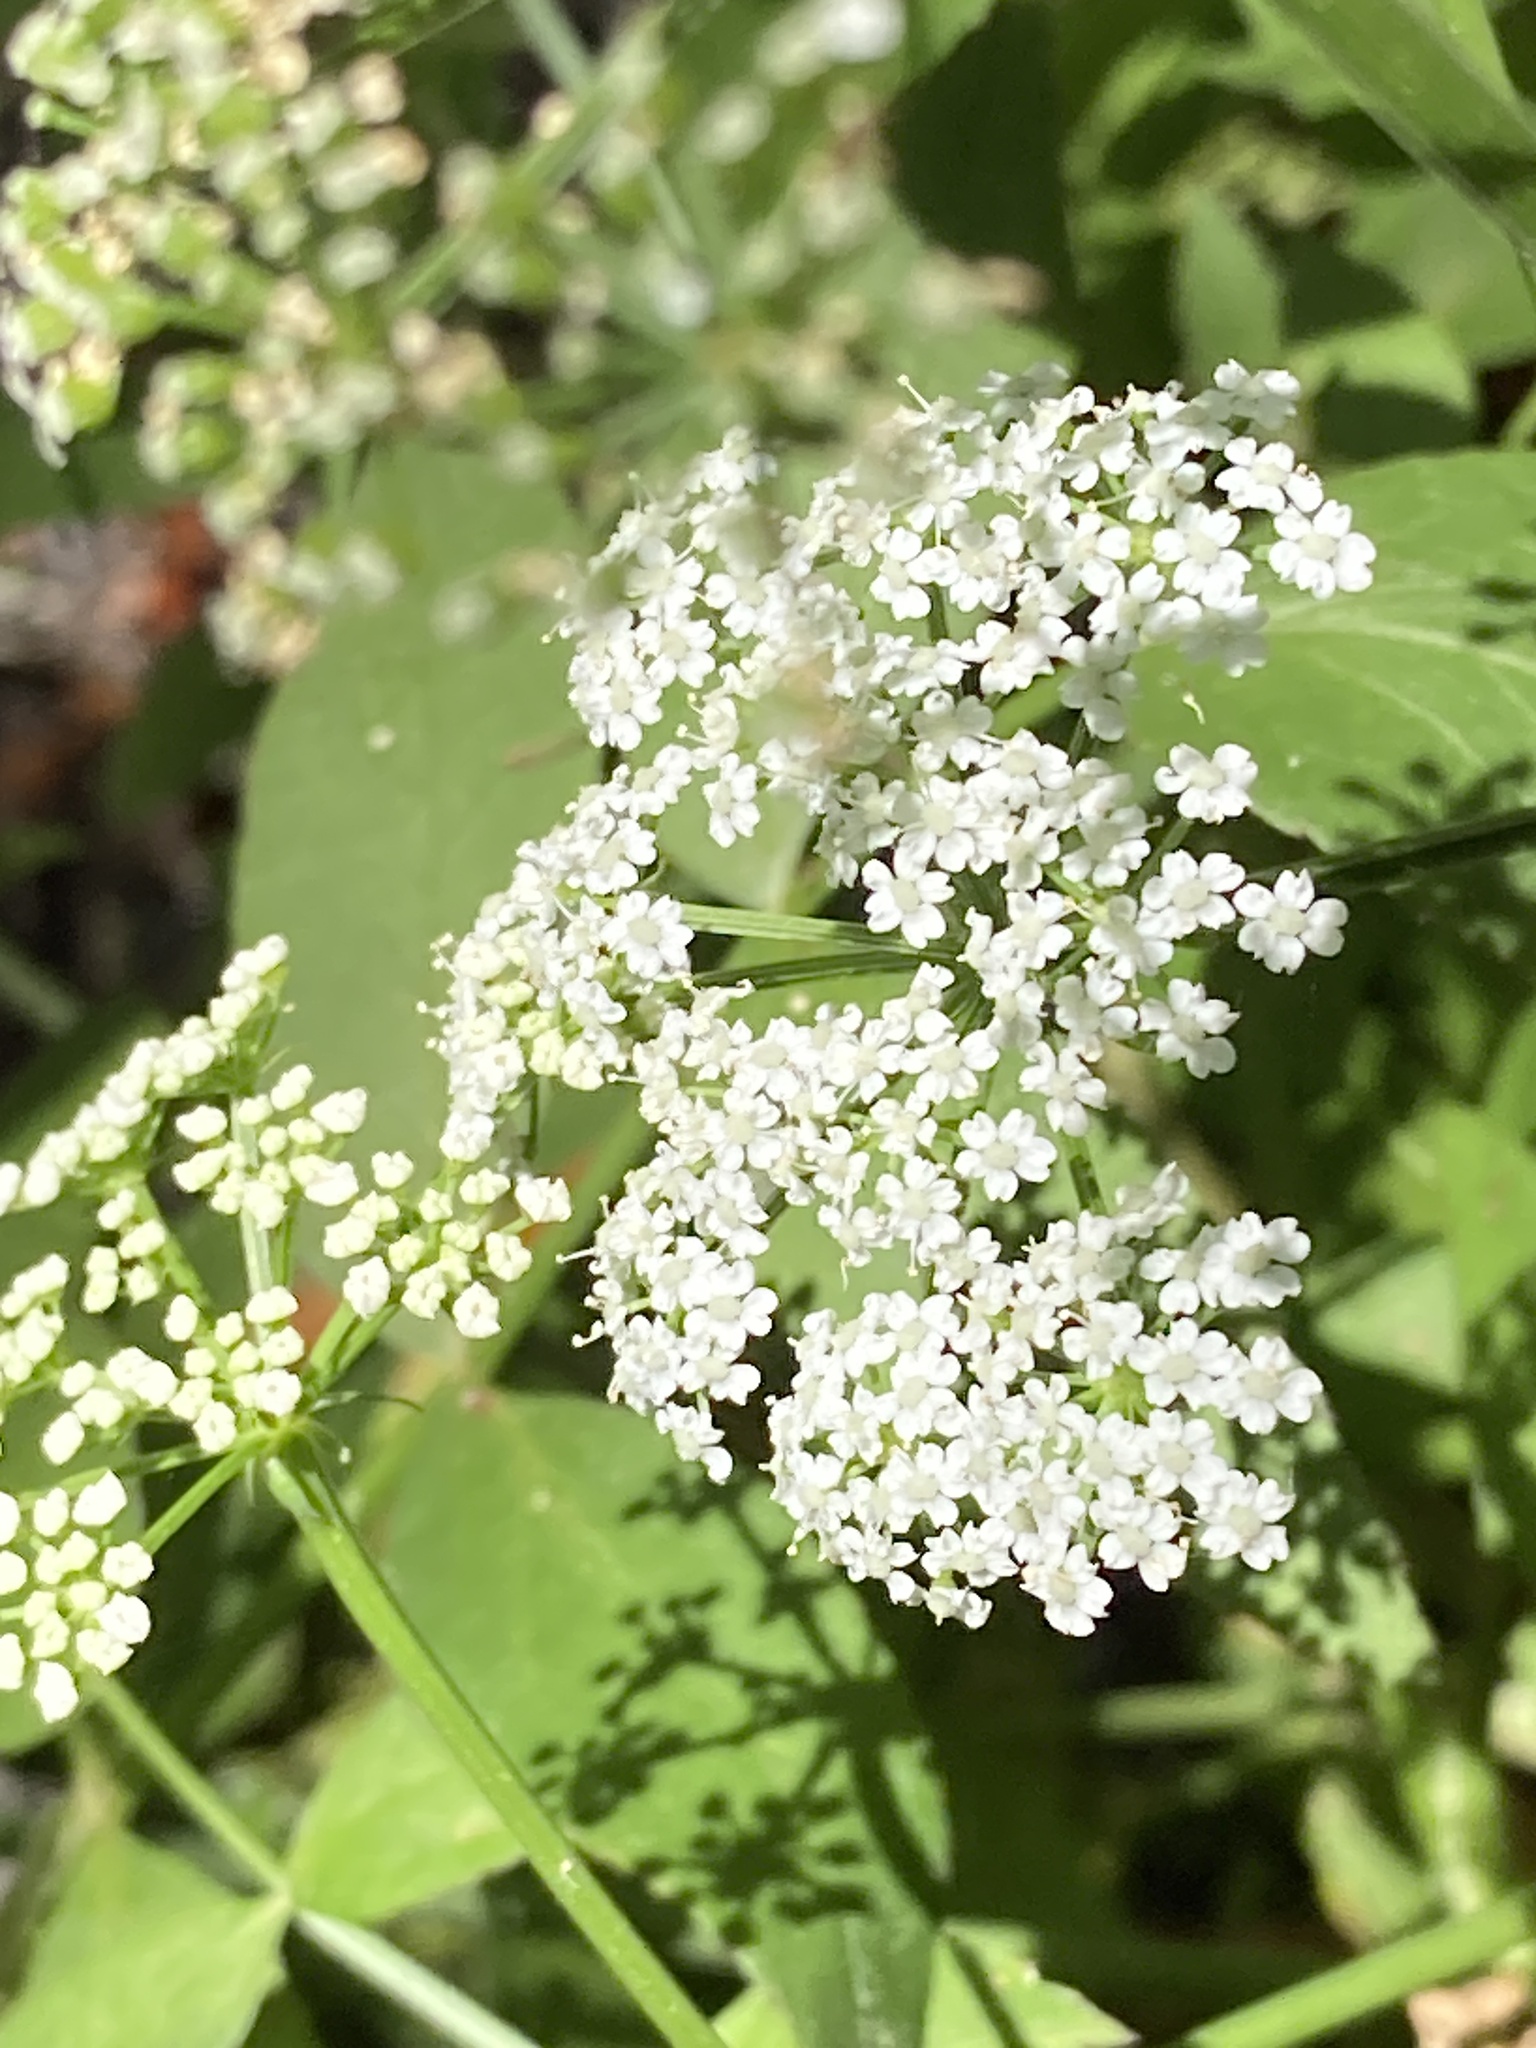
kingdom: Plantae
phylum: Tracheophyta
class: Magnoliopsida
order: Apiales
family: Apiaceae
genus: Cicuta
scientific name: Cicuta maculata
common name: Spotted cowbane
